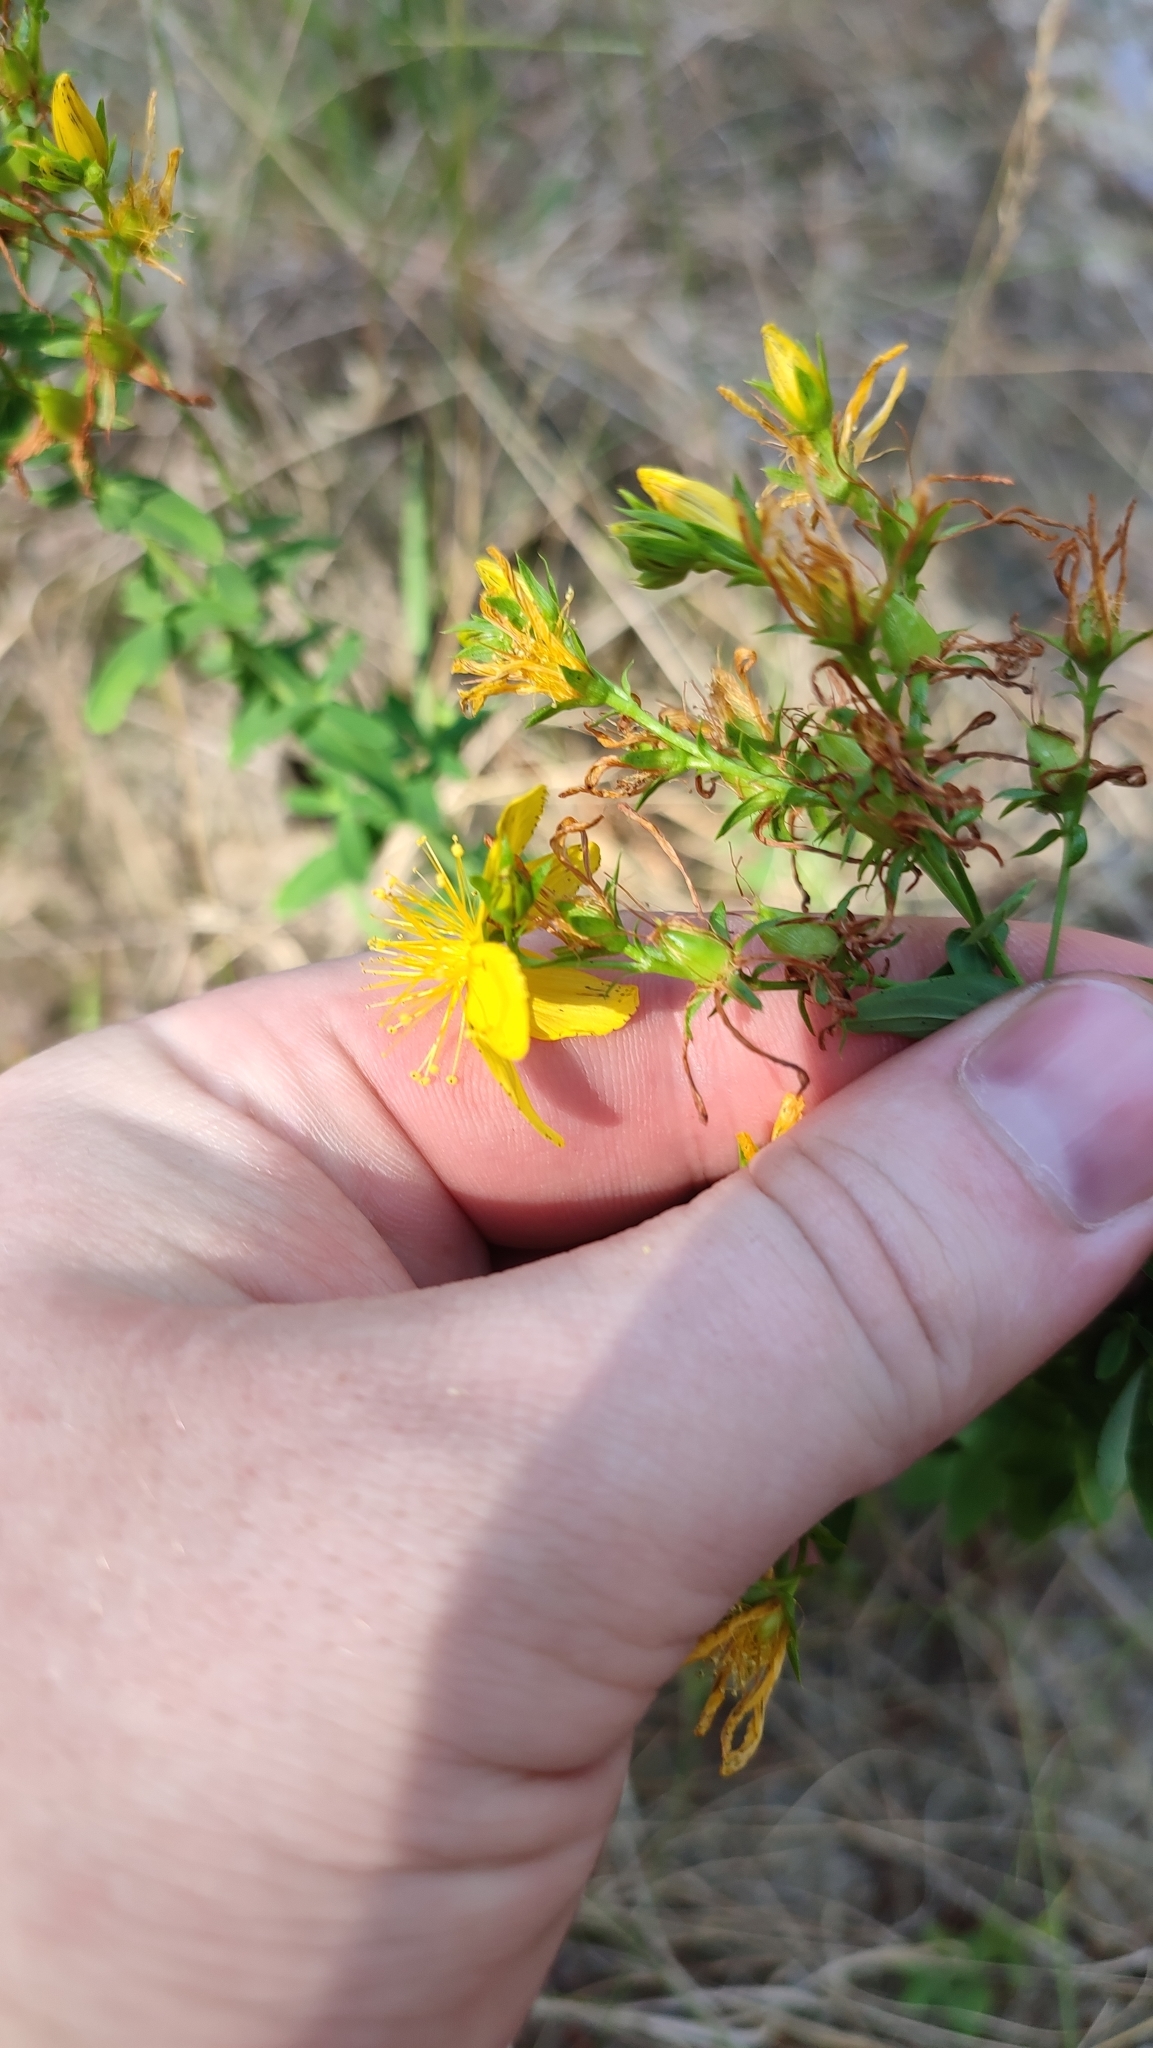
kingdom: Plantae
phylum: Tracheophyta
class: Magnoliopsida
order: Malpighiales
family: Hypericaceae
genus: Hypericum
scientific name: Hypericum perforatum
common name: Common st. johnswort
